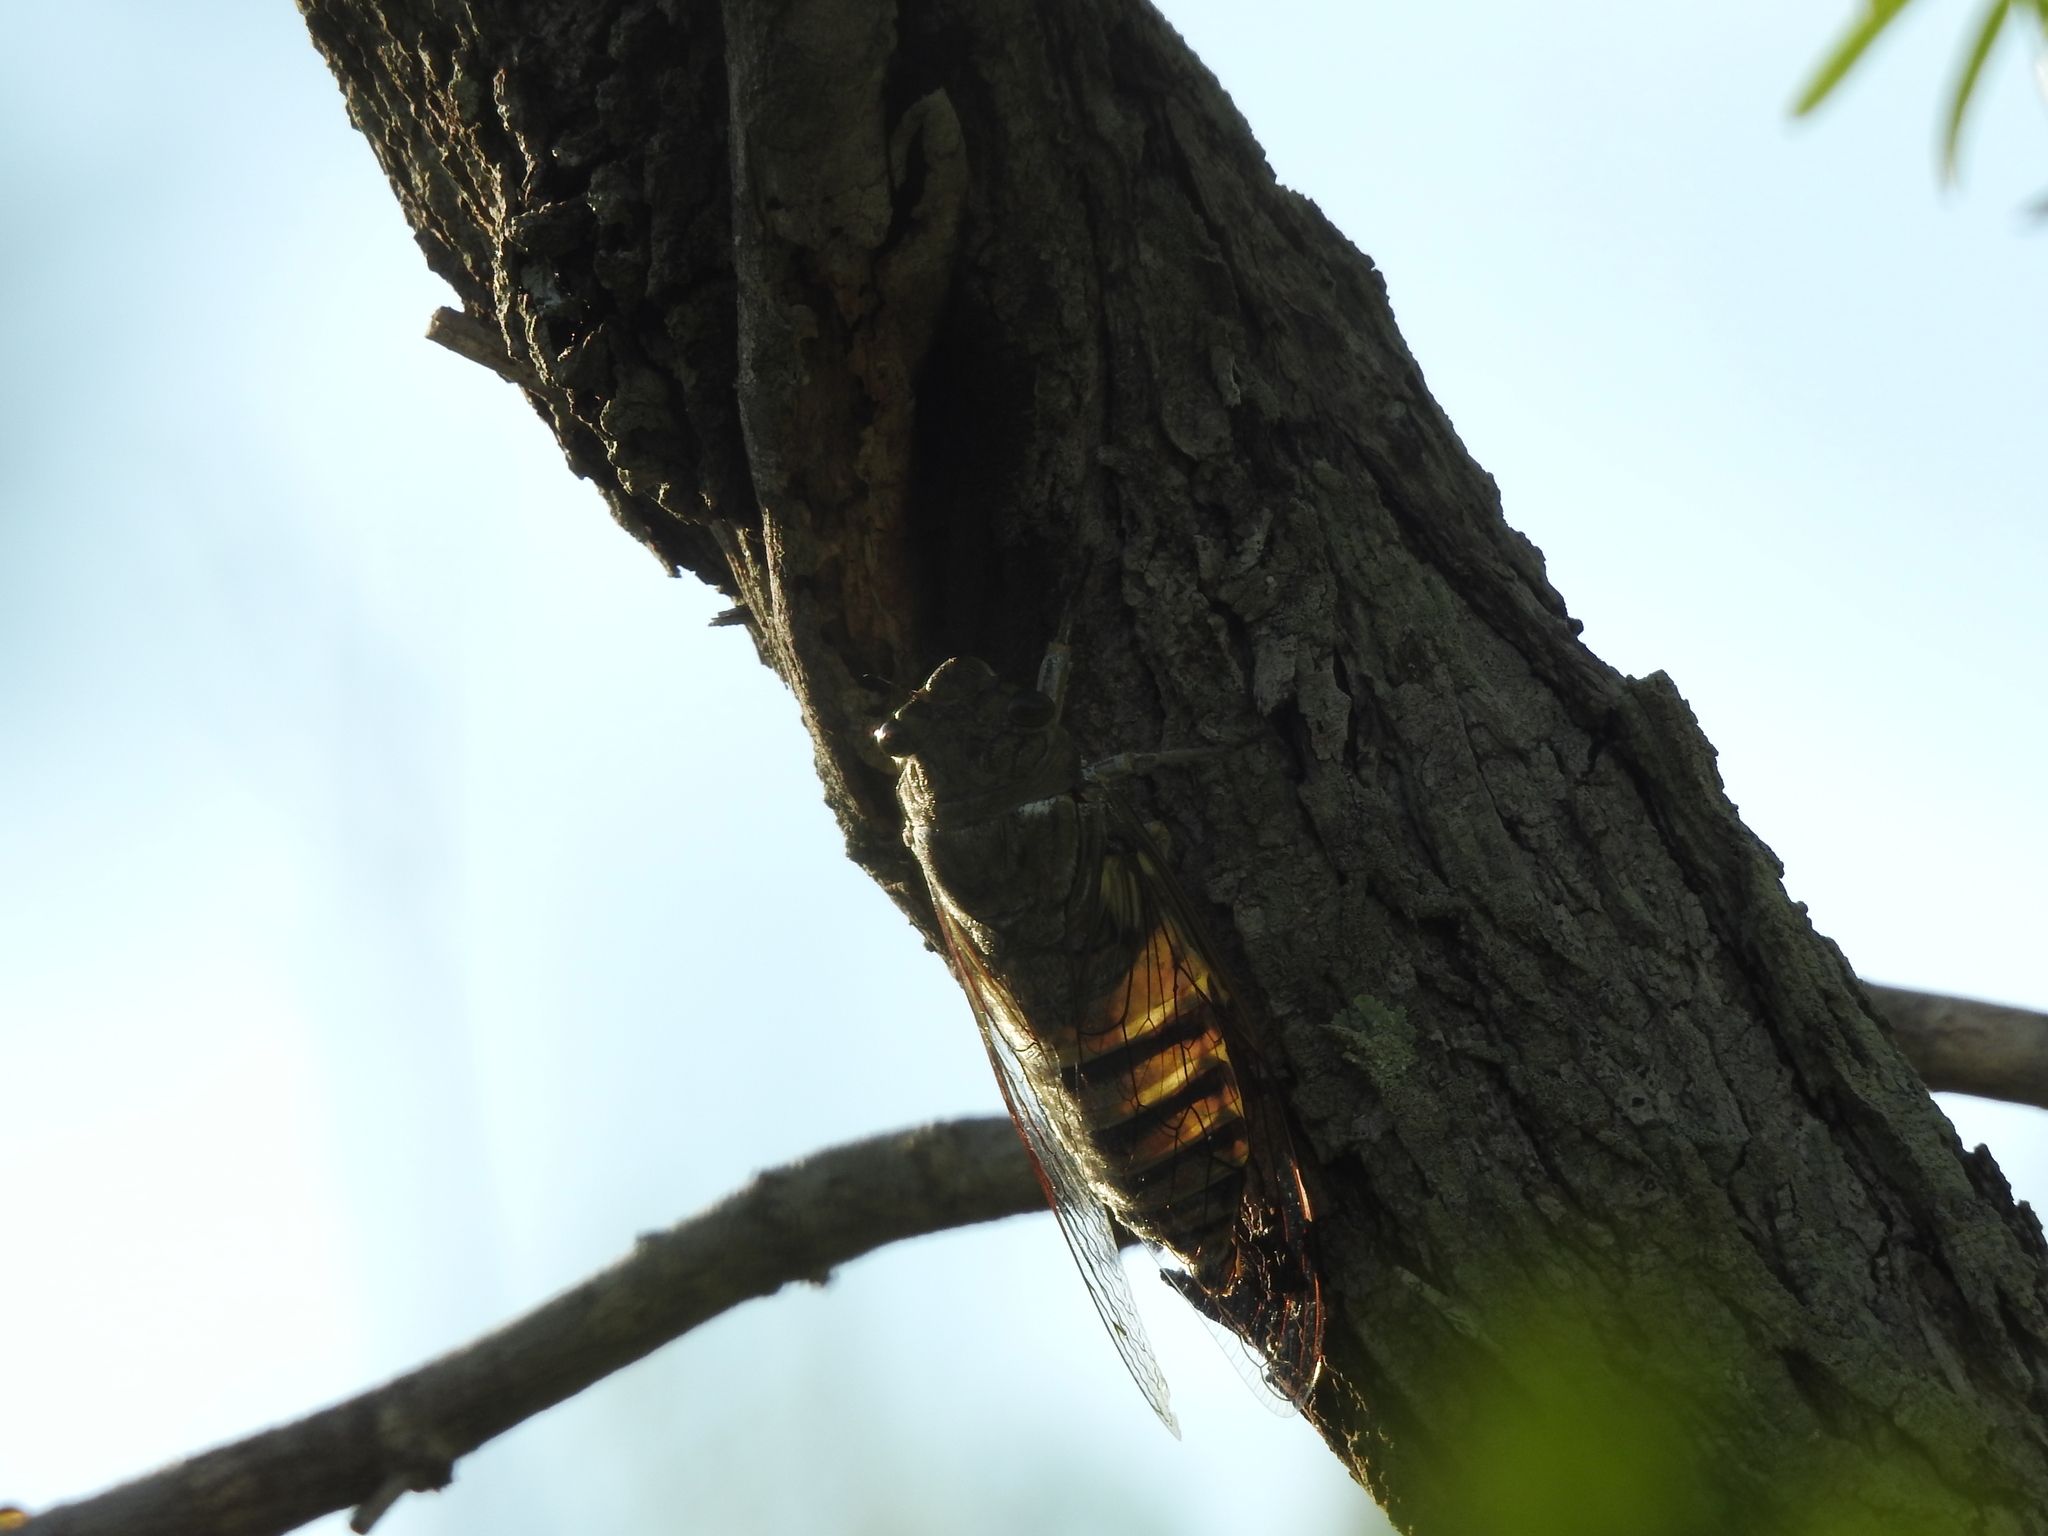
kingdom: Animalia
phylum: Arthropoda
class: Insecta
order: Hemiptera
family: Cicadidae
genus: Quesada
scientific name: Quesada gigas
